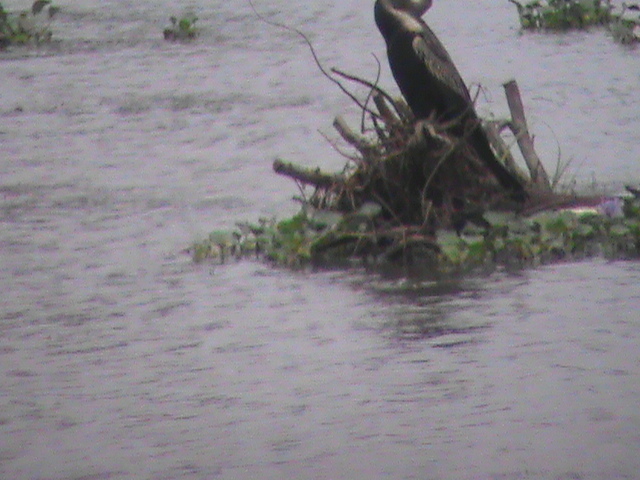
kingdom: Animalia
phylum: Chordata
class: Aves
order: Suliformes
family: Anhingidae
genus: Anhinga
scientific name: Anhinga melanogaster
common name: Oriental darter
